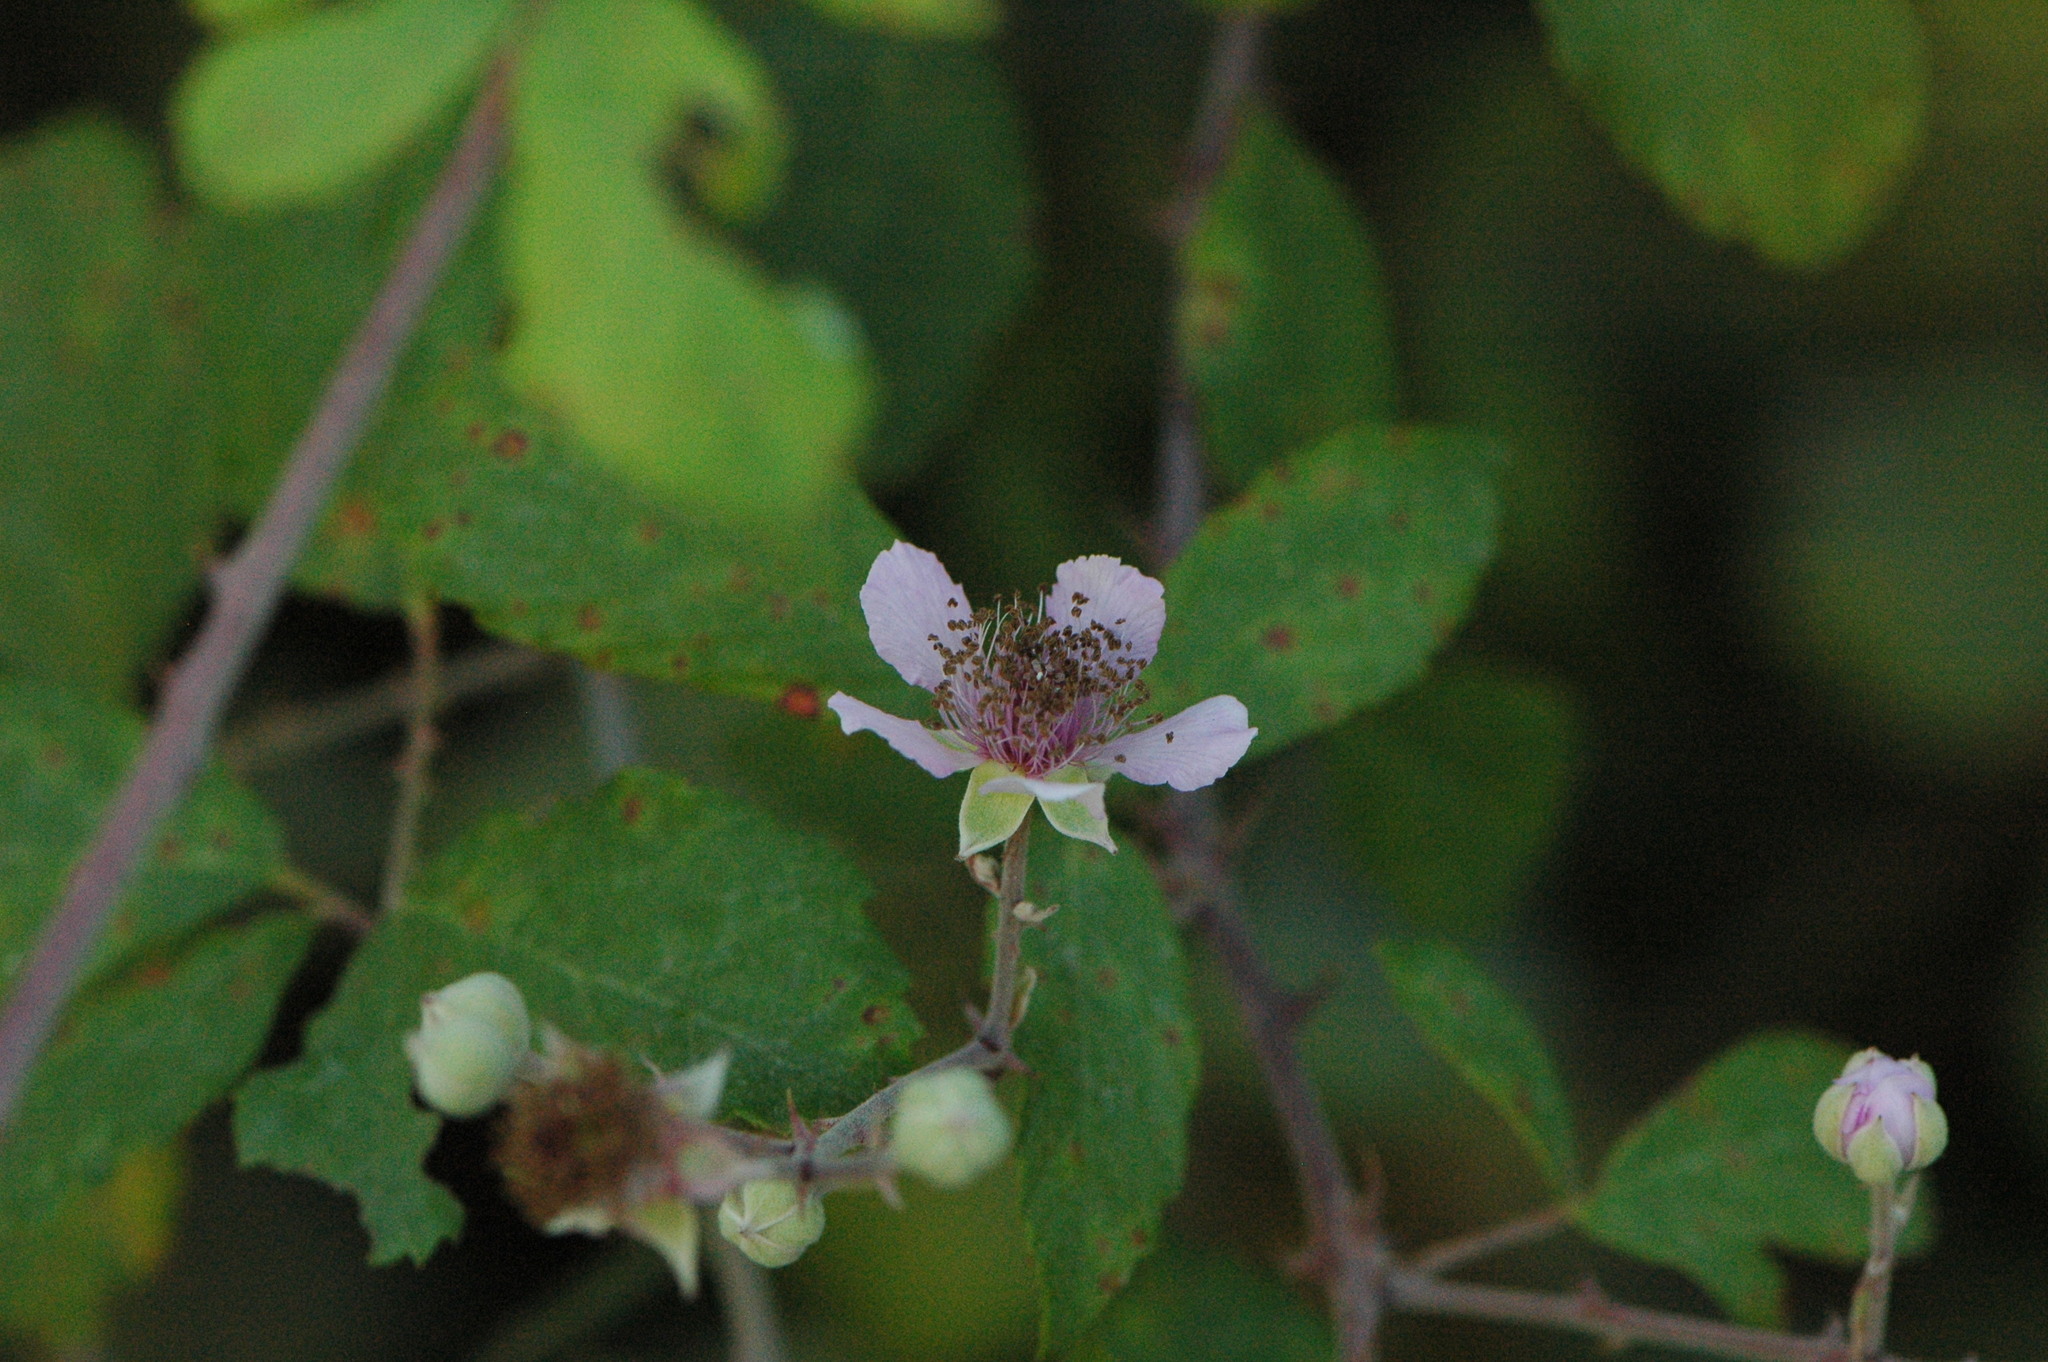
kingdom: Plantae
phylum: Tracheophyta
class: Magnoliopsida
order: Rosales
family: Rosaceae
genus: Rubus
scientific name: Rubus ulmifolius
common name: Elmleaf blackberry
